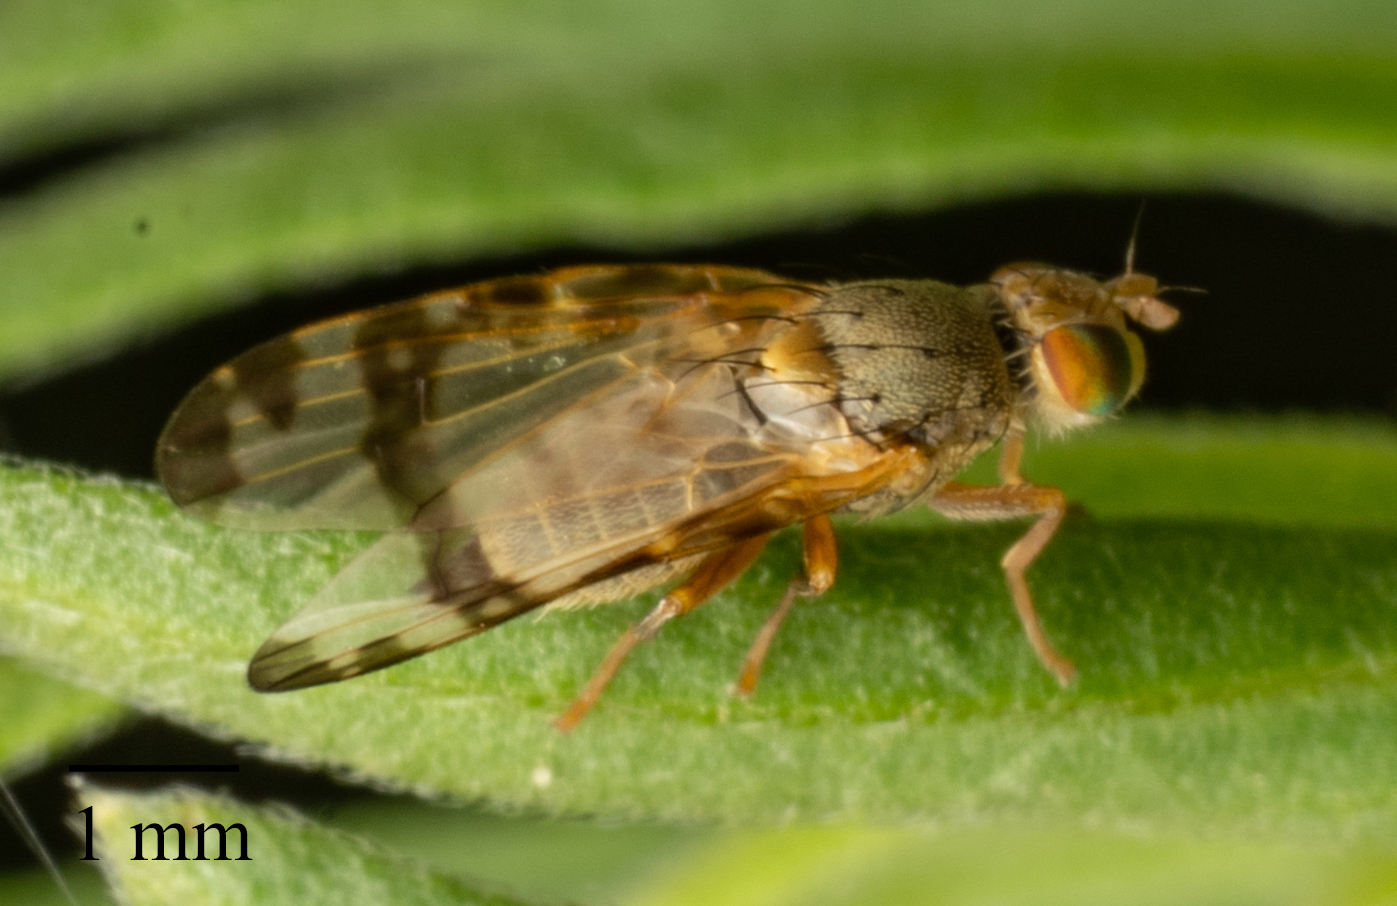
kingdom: Animalia
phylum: Arthropoda
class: Insecta
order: Diptera
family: Tephritidae
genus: Sphenella
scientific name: Sphenella marginata
